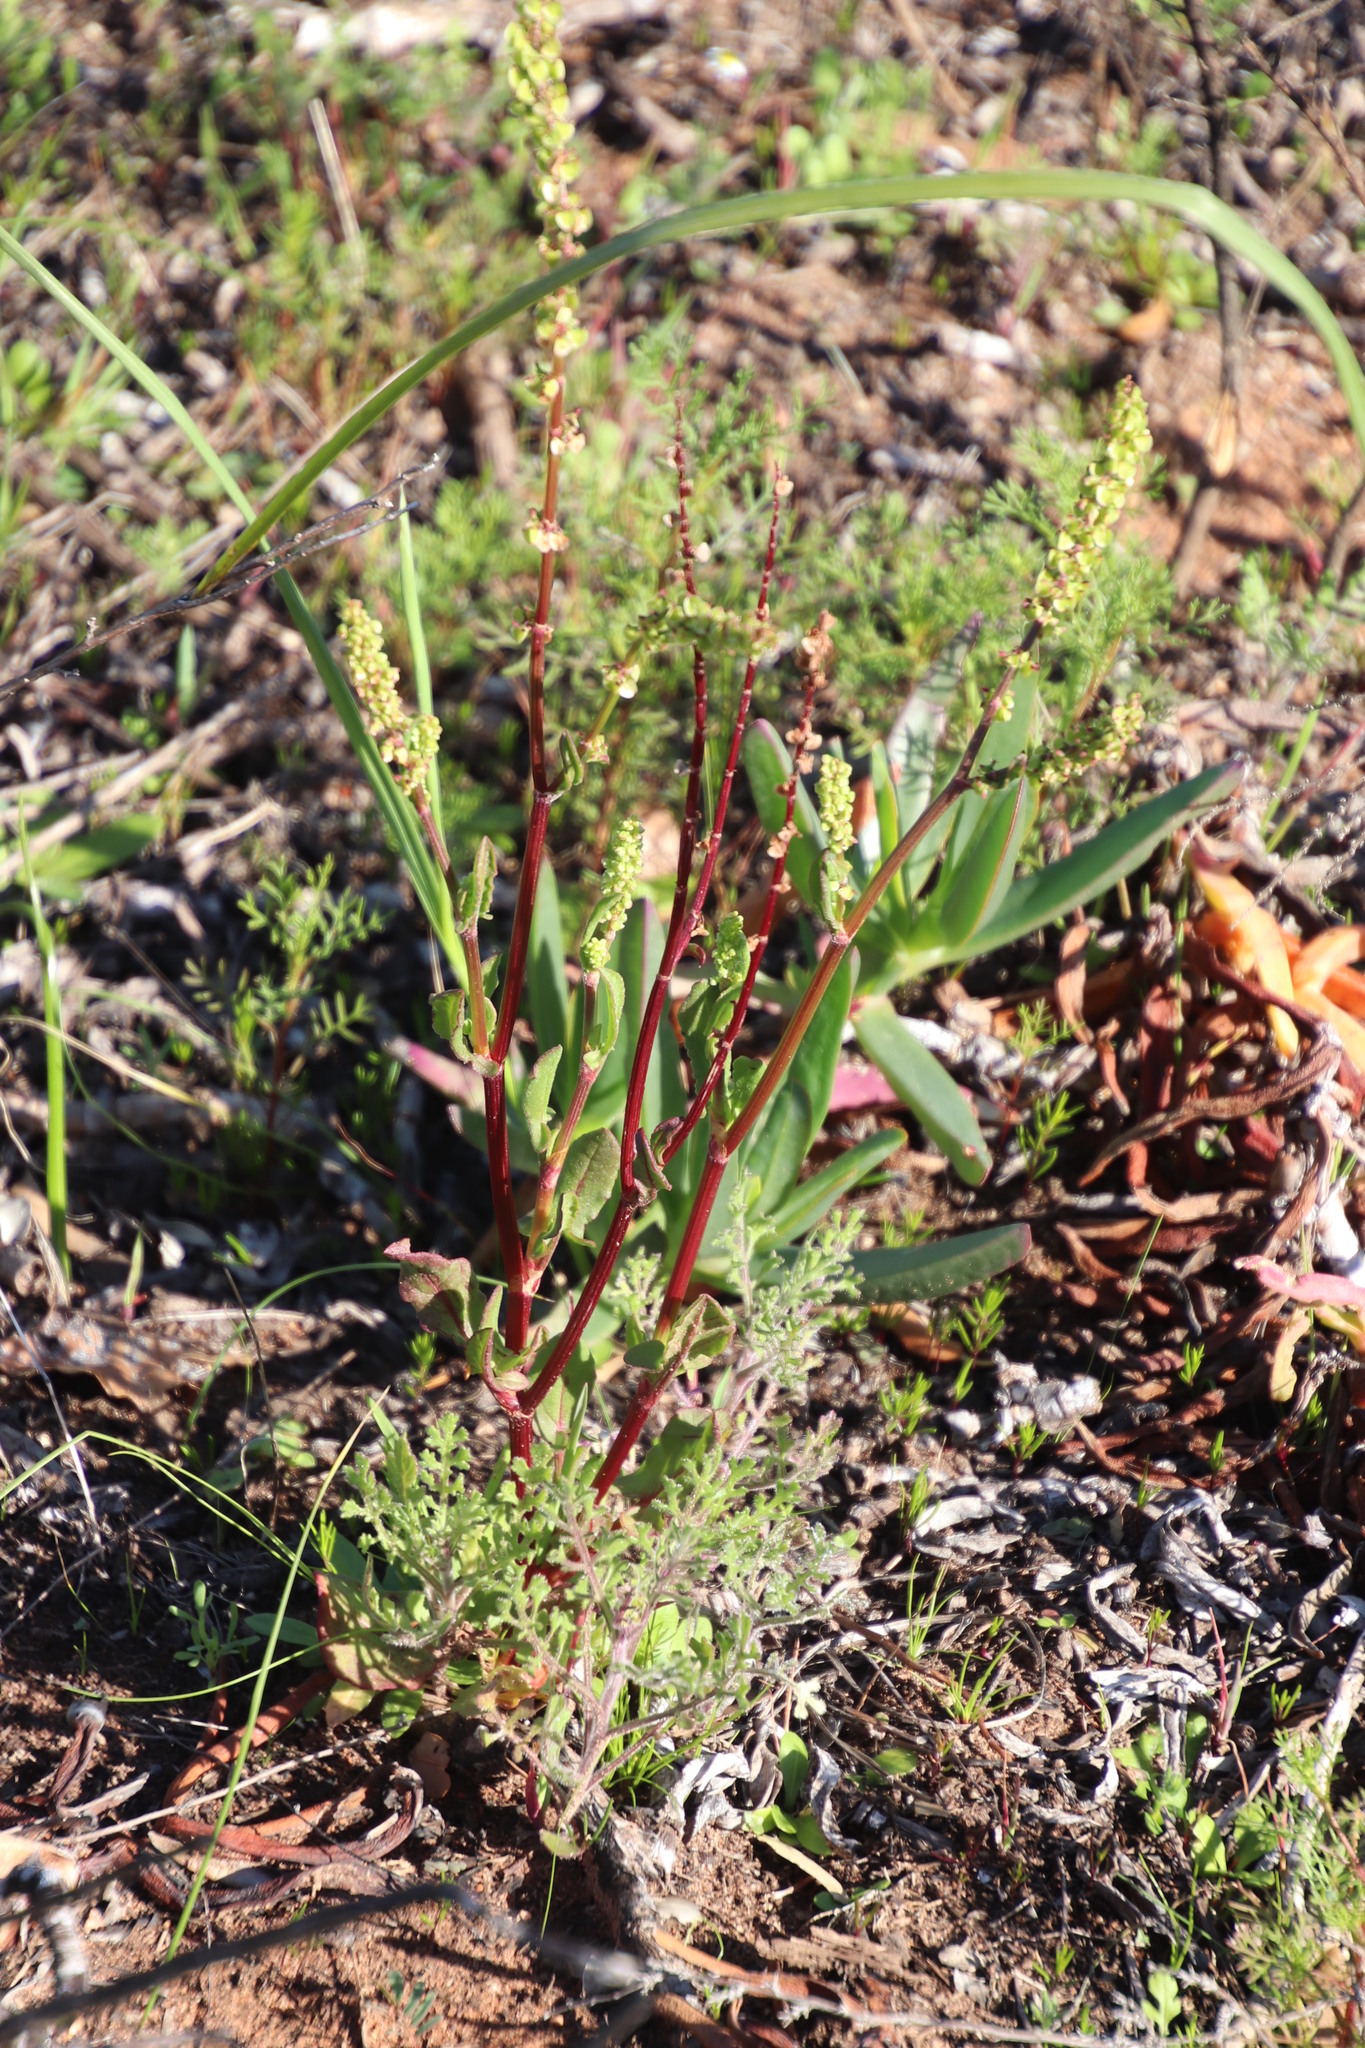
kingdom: Plantae
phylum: Tracheophyta
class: Magnoliopsida
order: Caryophyllales
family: Polygonaceae
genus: Rumex
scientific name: Rumex acetosella
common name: Common sheep sorrel
